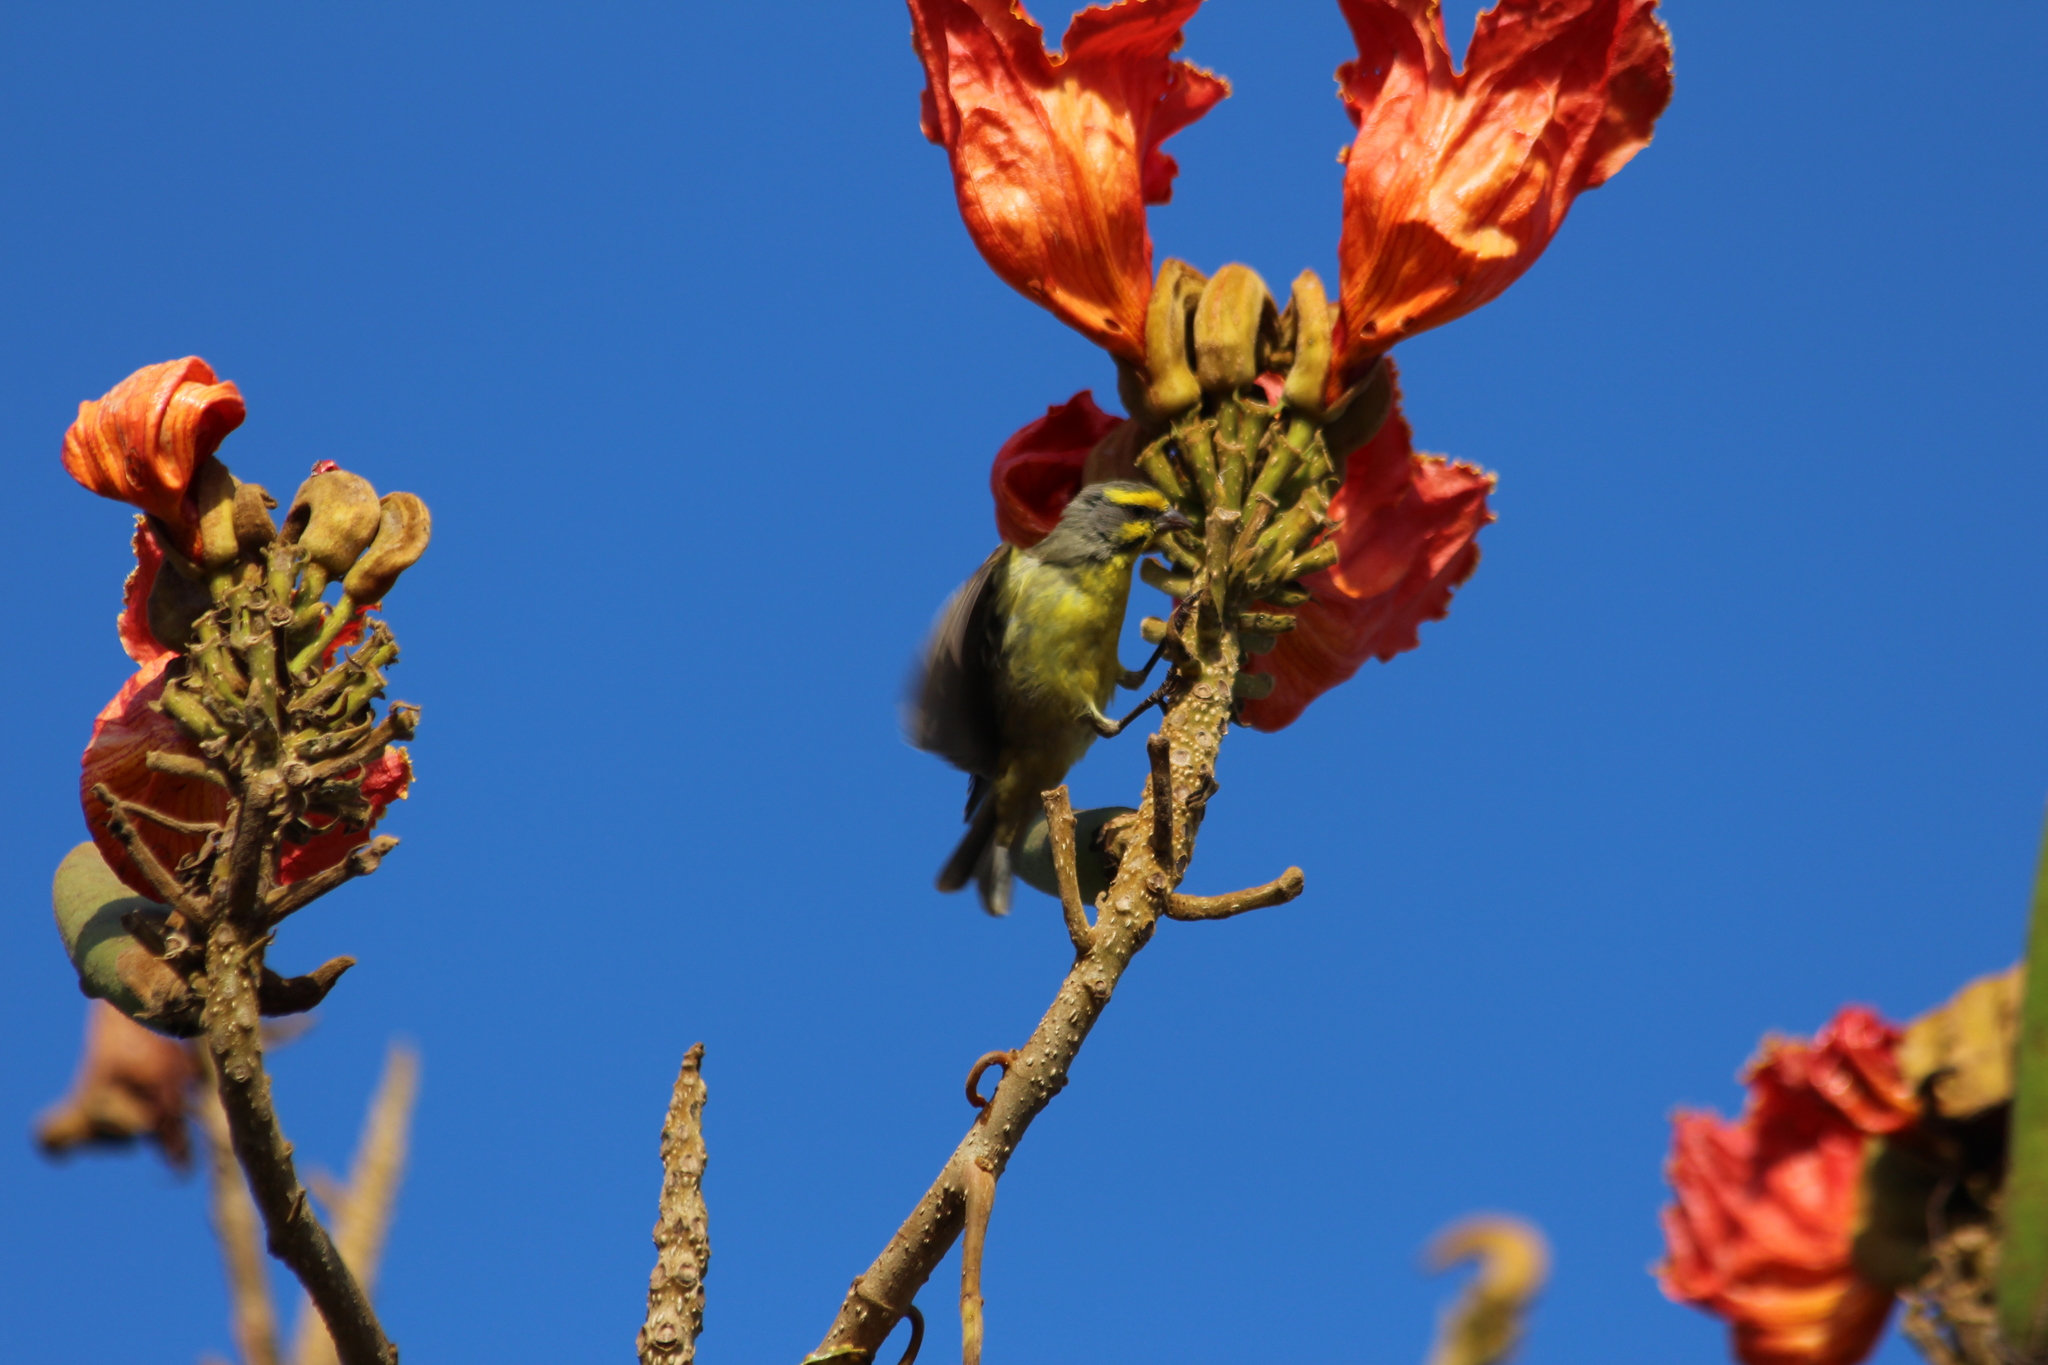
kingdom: Animalia
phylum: Chordata
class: Aves
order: Passeriformes
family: Fringillidae
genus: Crithagra
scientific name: Crithagra mozambica
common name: Yellow-fronted canary
